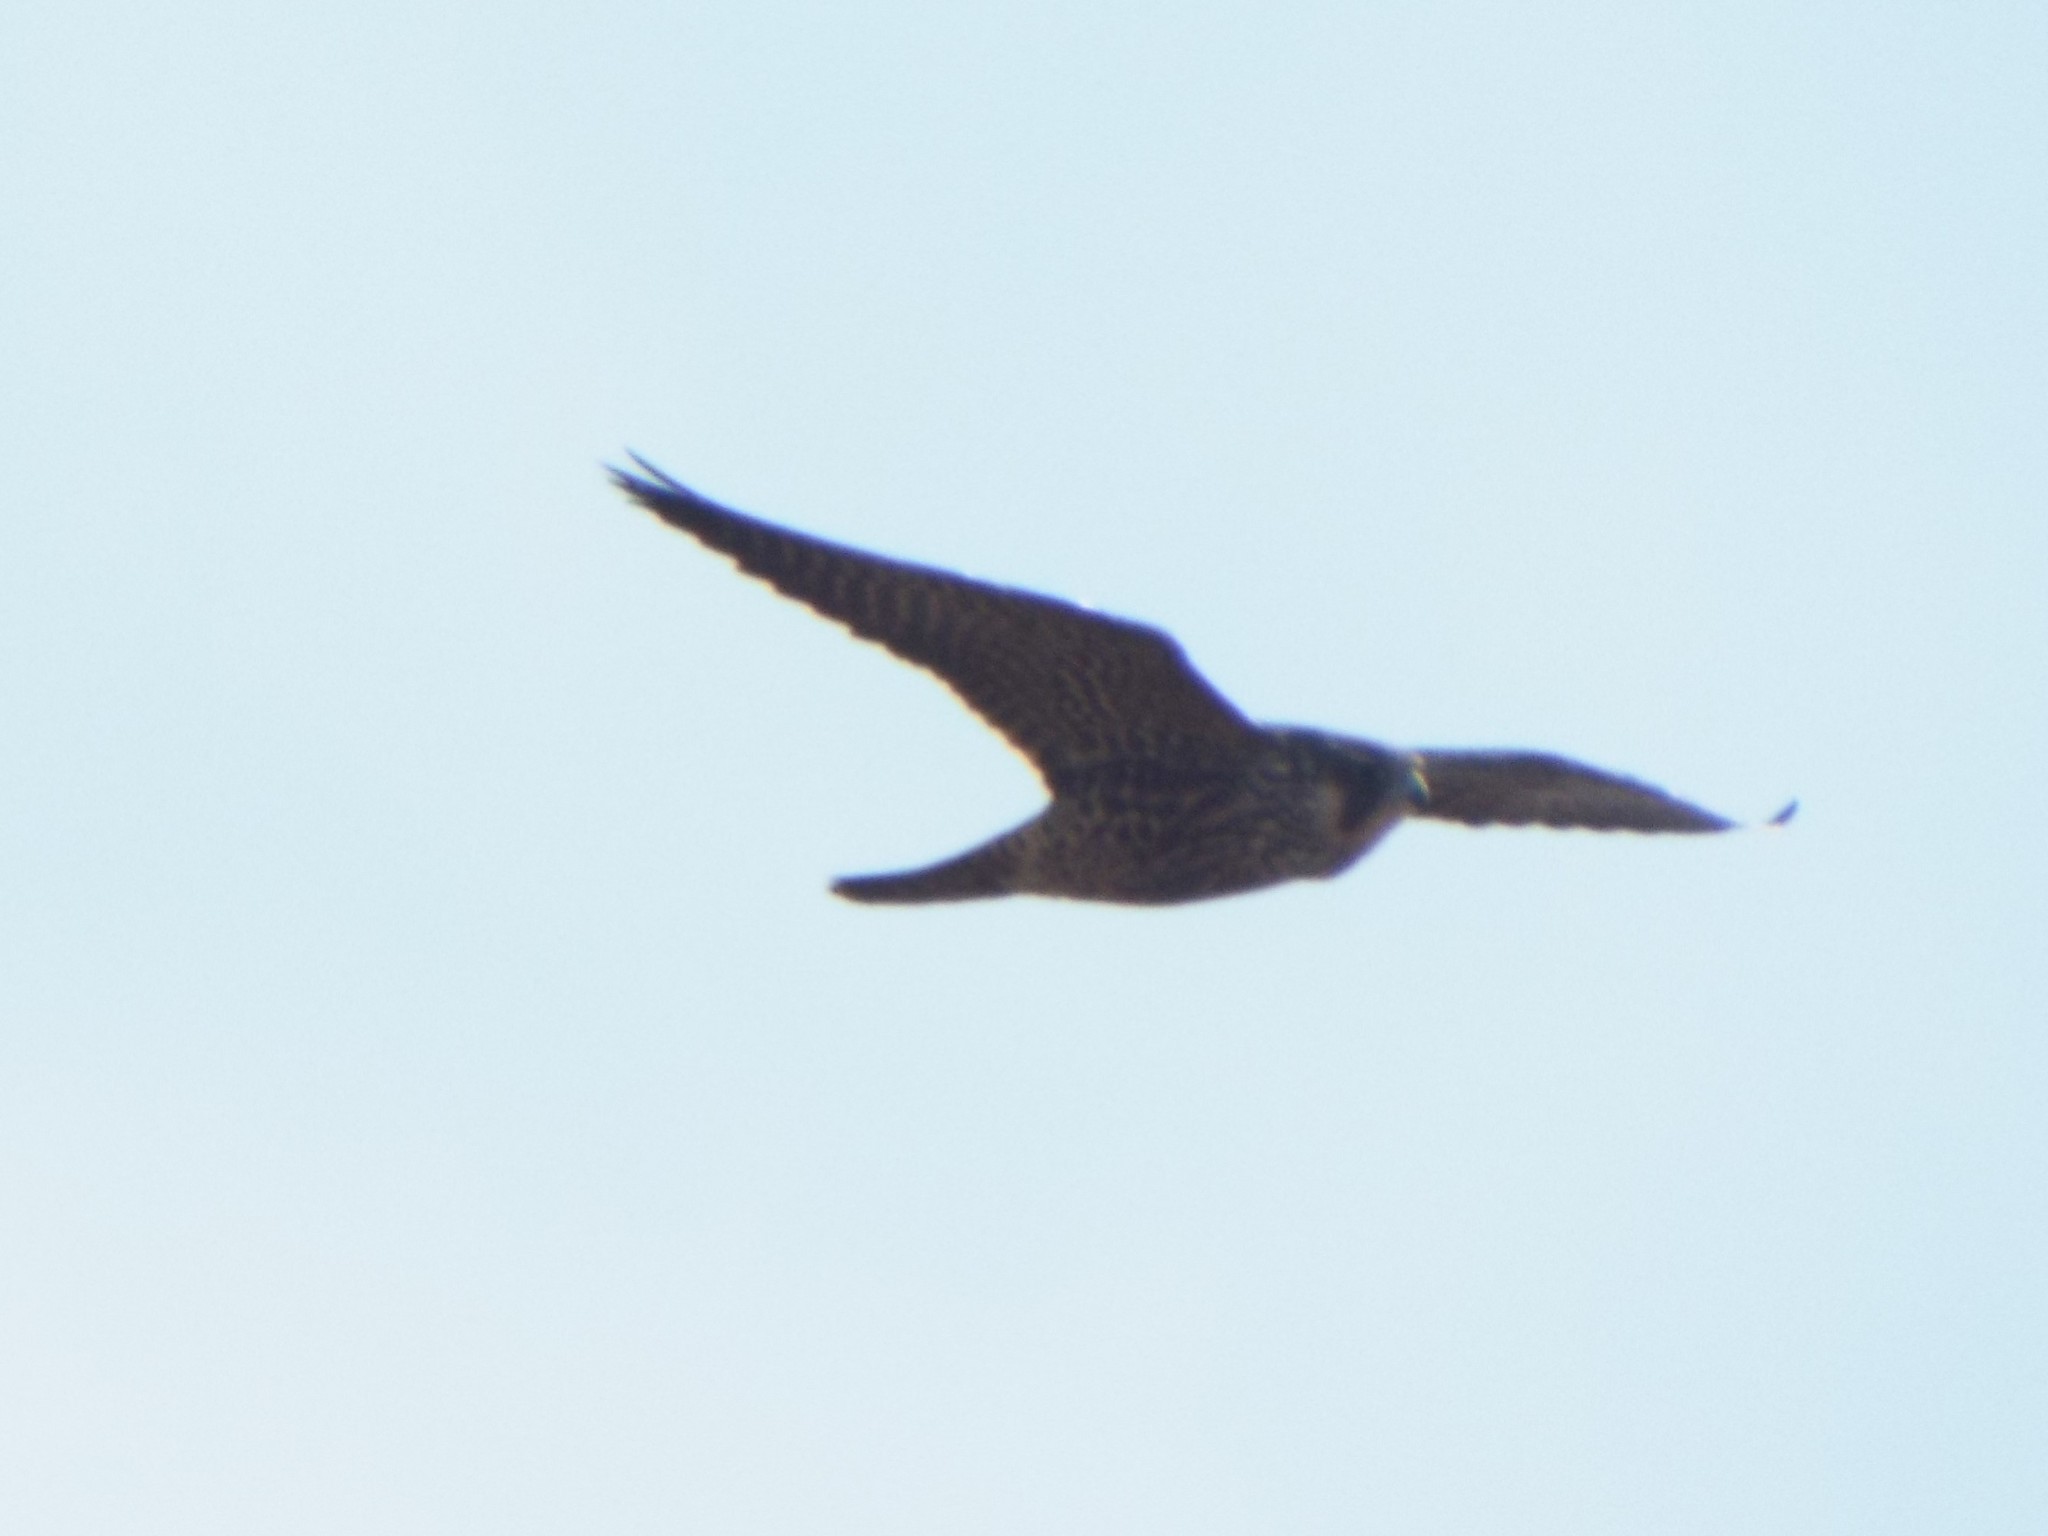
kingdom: Animalia
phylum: Chordata
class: Aves
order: Falconiformes
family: Falconidae
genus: Falco
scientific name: Falco peregrinus
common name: Peregrine falcon
